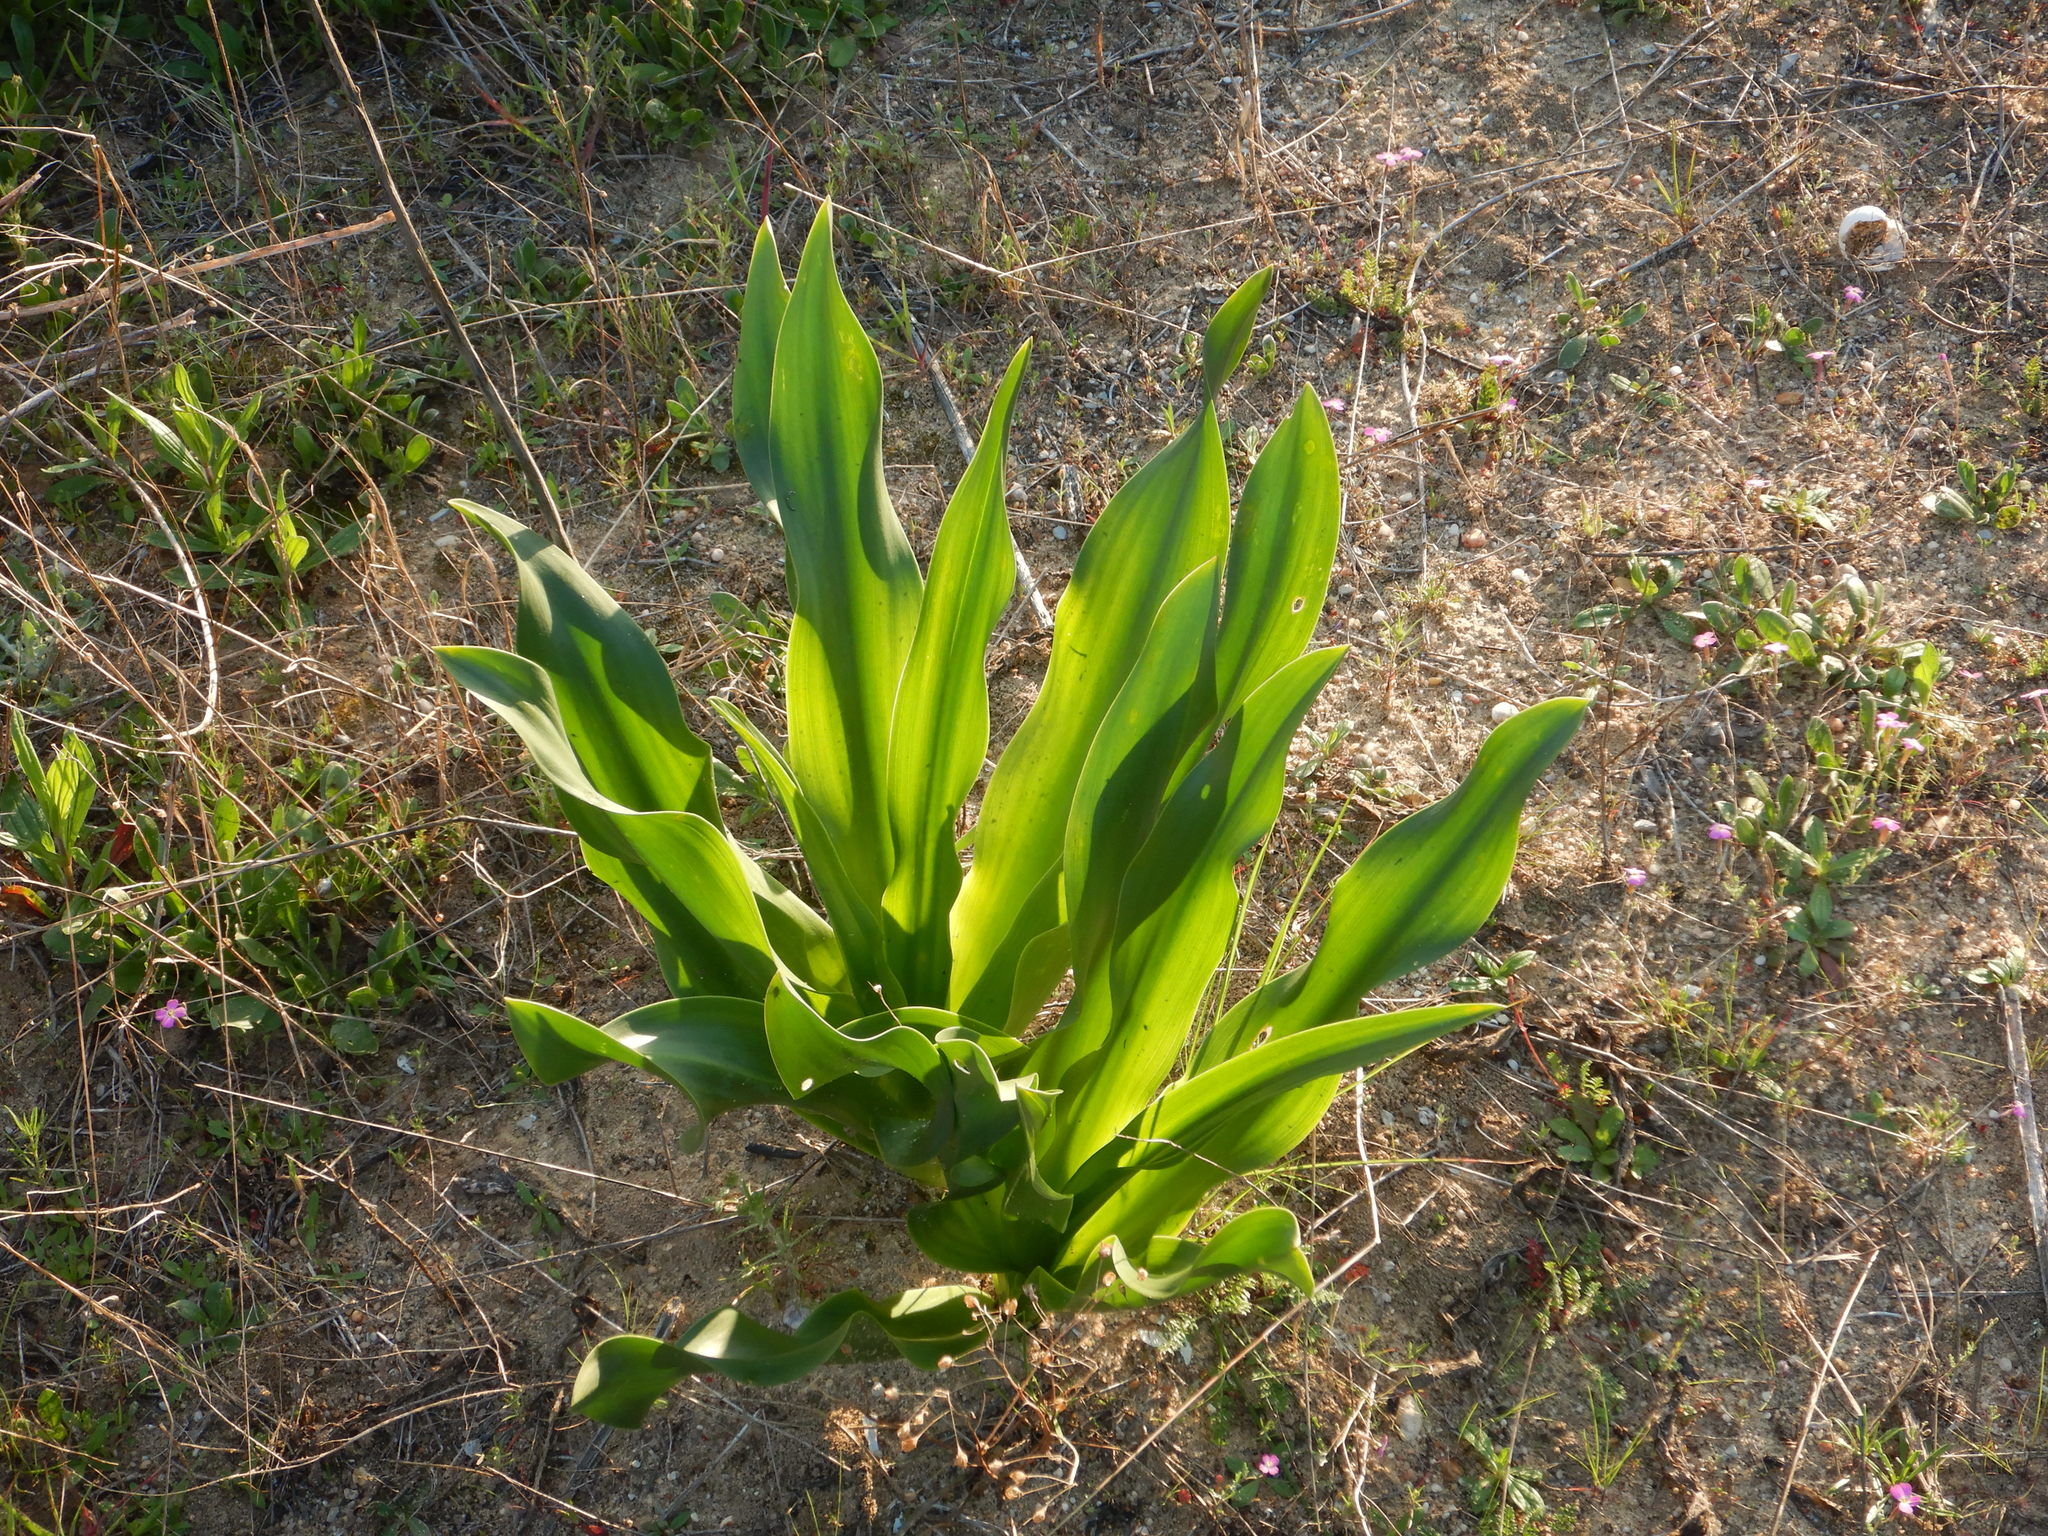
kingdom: Plantae
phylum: Tracheophyta
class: Liliopsida
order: Asparagales
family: Asparagaceae
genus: Drimia
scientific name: Drimia maritima
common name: Maritime squill
